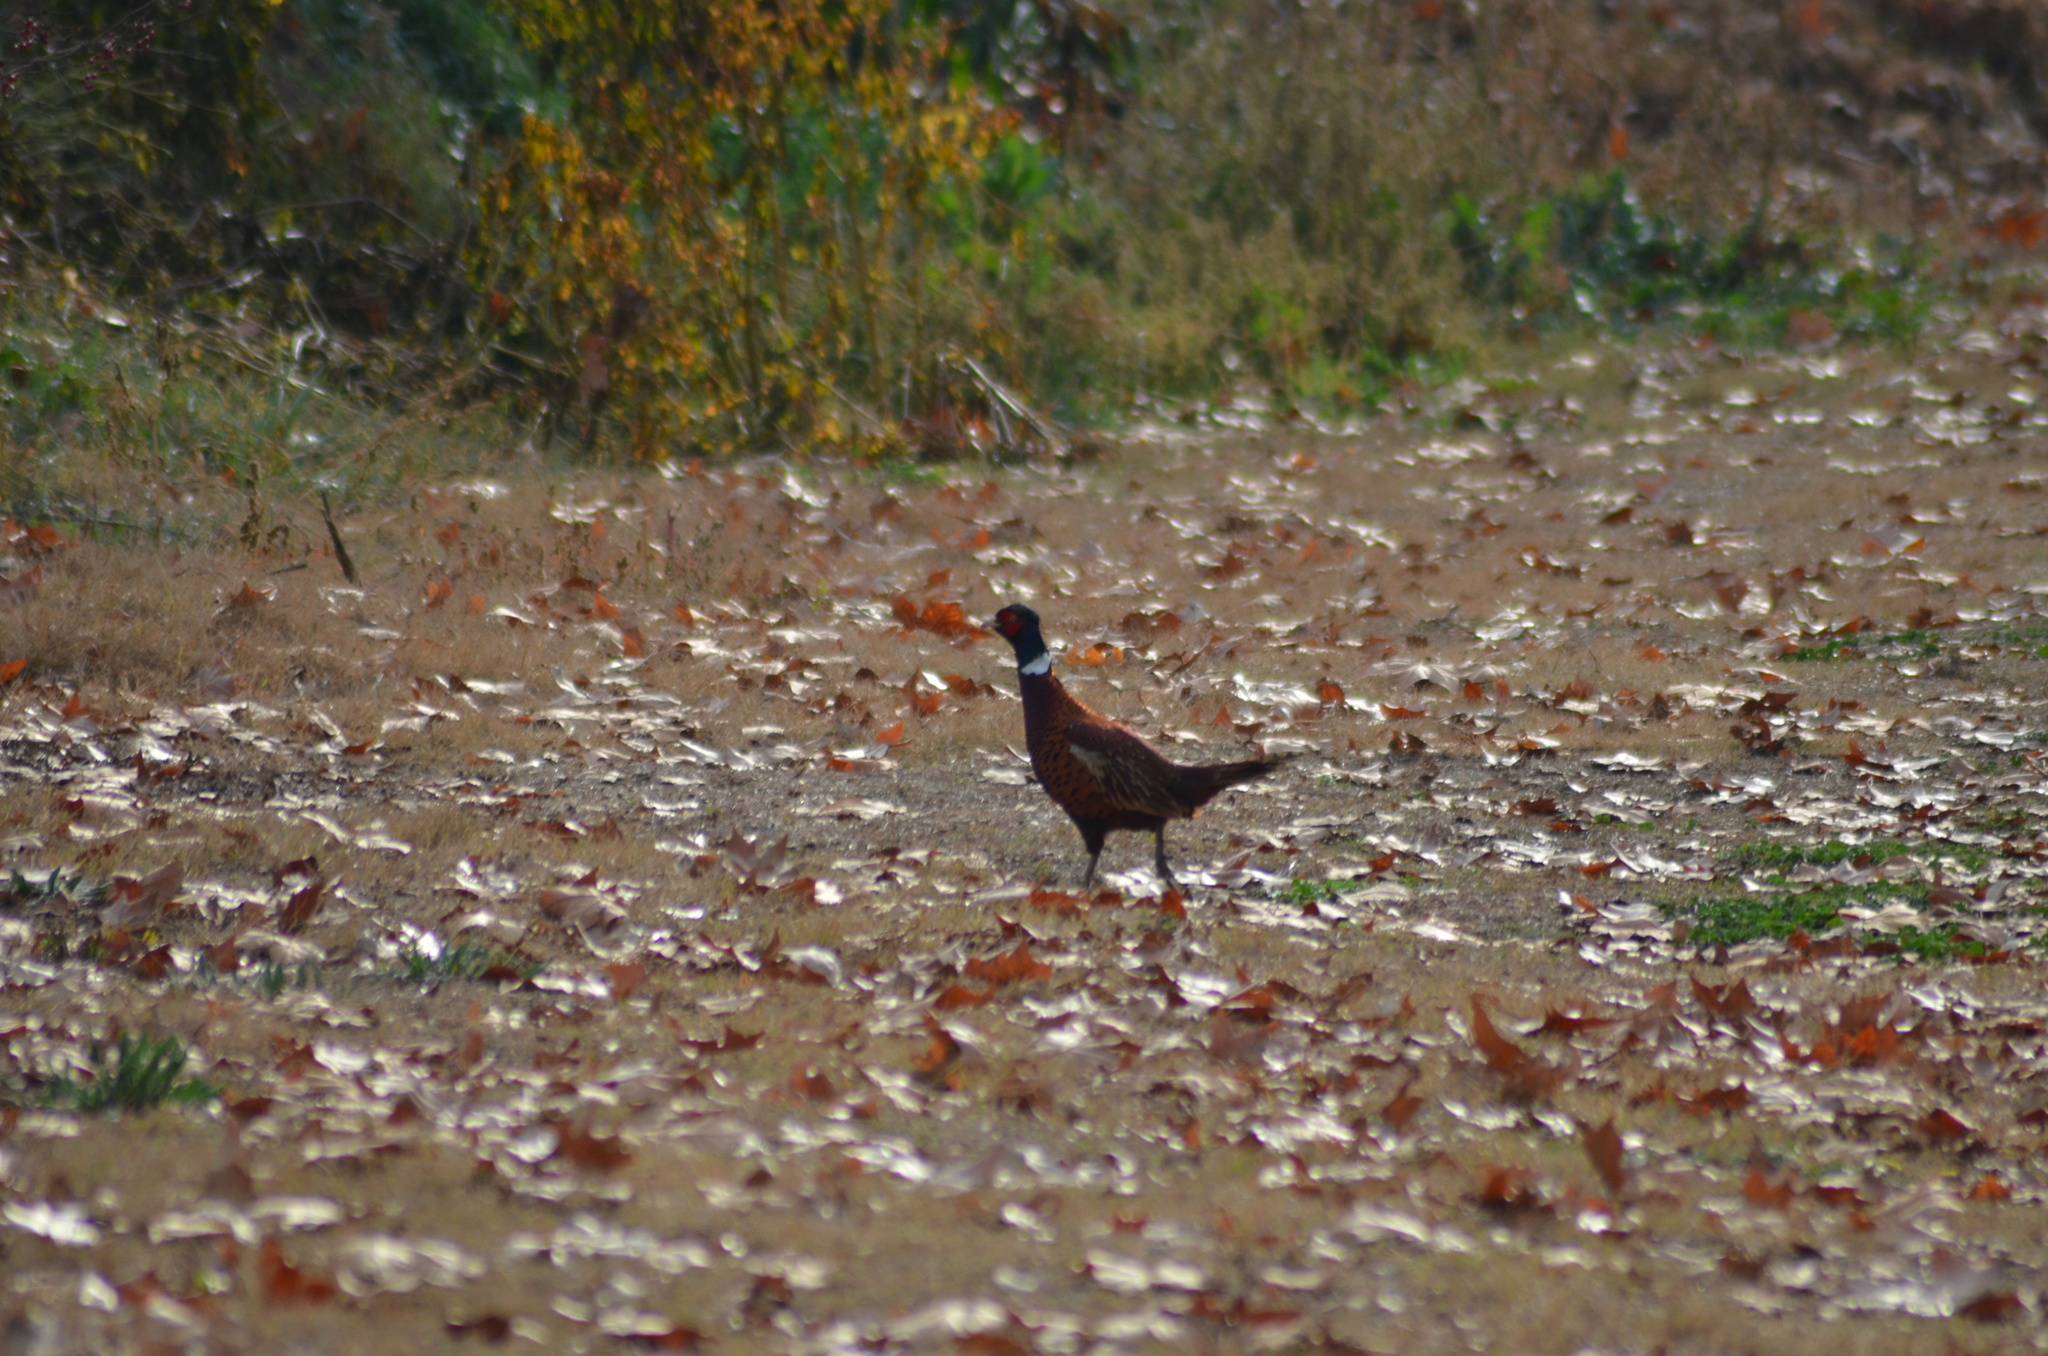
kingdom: Animalia
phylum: Chordata
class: Aves
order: Galliformes
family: Phasianidae
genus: Phasianus
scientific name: Phasianus colchicus
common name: Common pheasant
